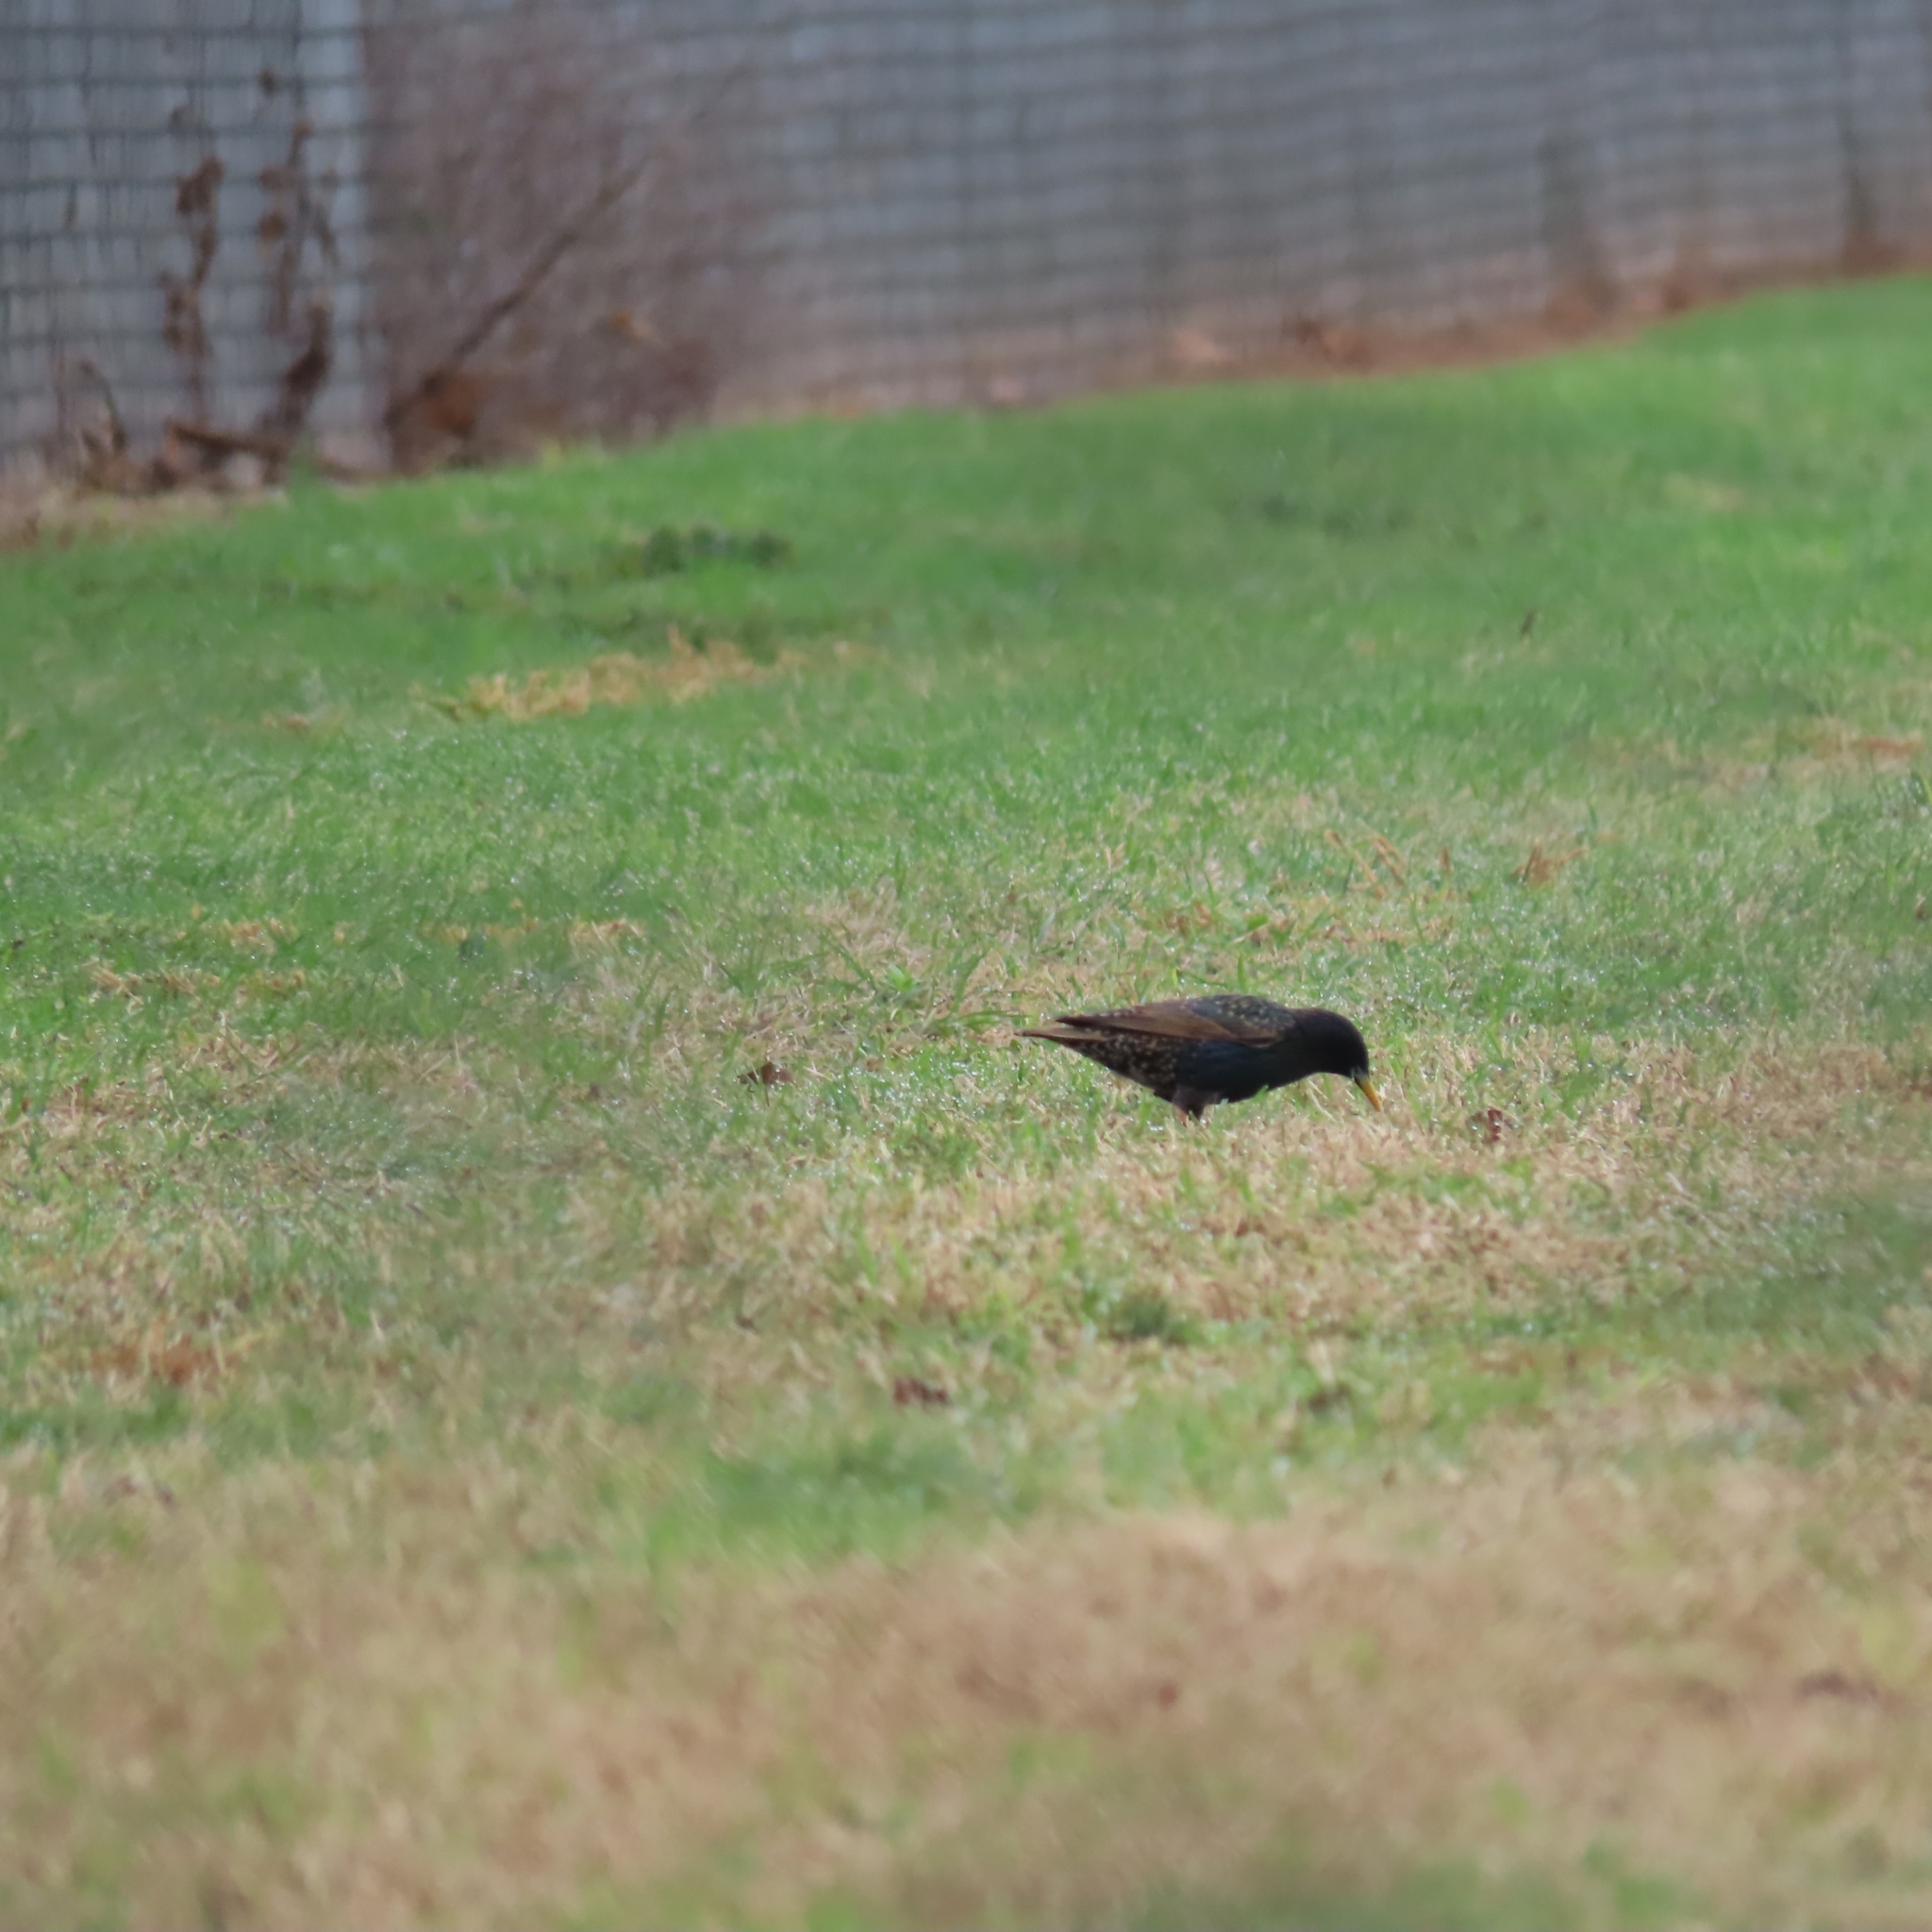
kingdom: Animalia
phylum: Chordata
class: Aves
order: Passeriformes
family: Sturnidae
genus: Sturnus
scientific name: Sturnus vulgaris
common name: Common starling
